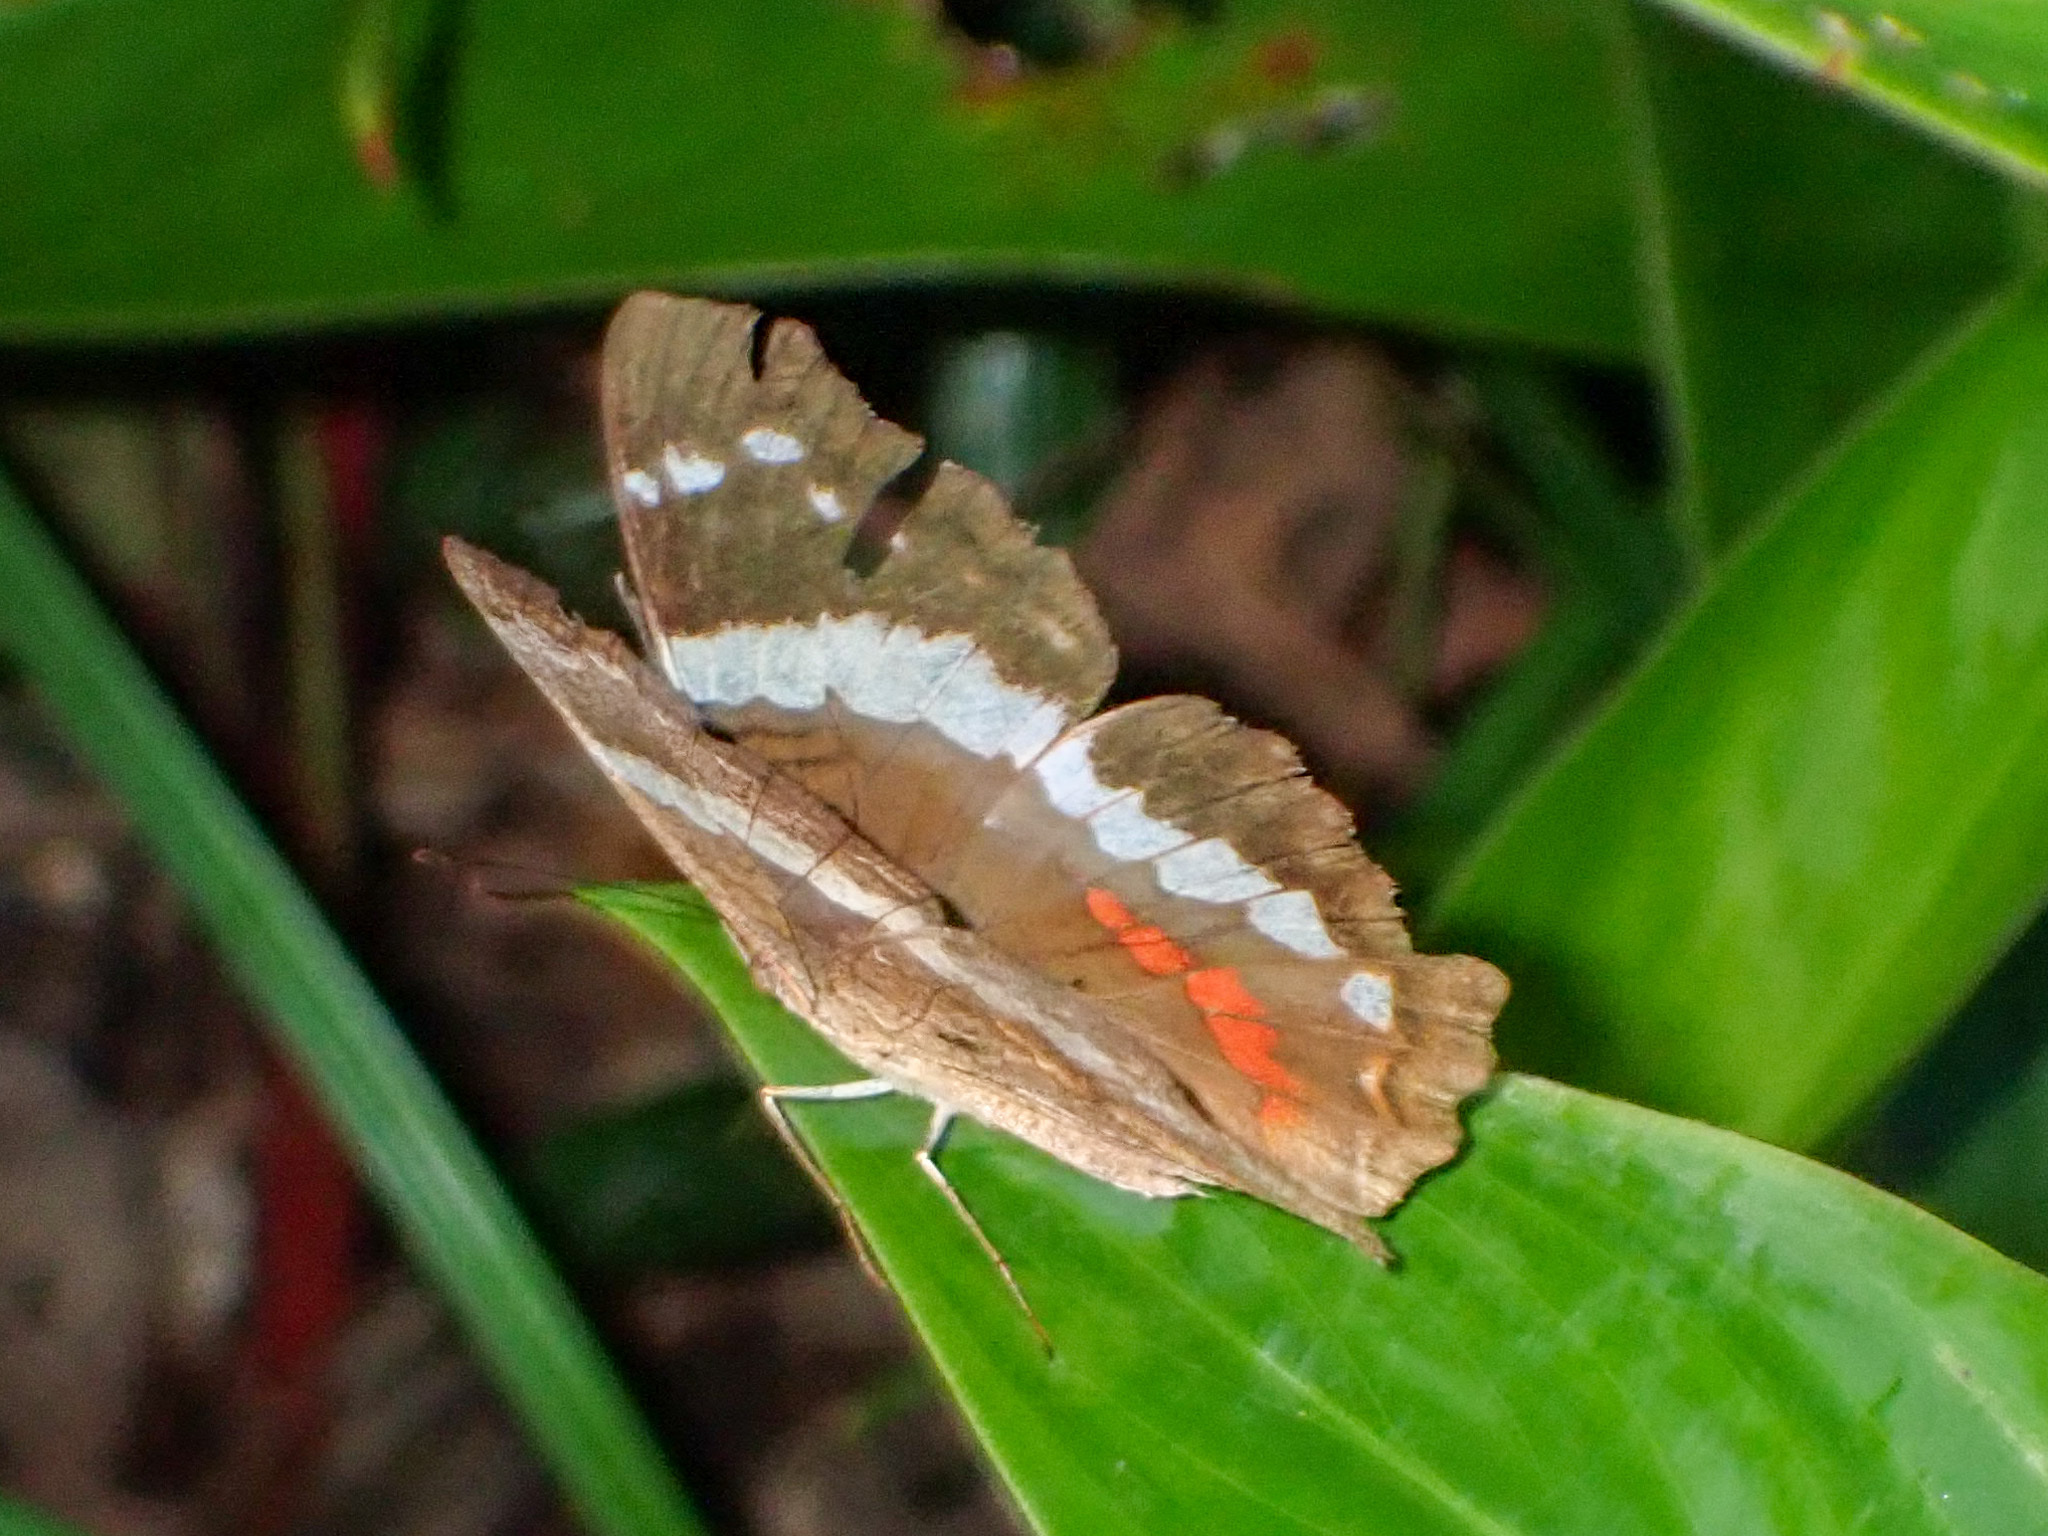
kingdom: Animalia
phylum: Arthropoda
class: Insecta
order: Lepidoptera
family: Nymphalidae
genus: Anartia
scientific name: Anartia fatima
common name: Banded peacock
